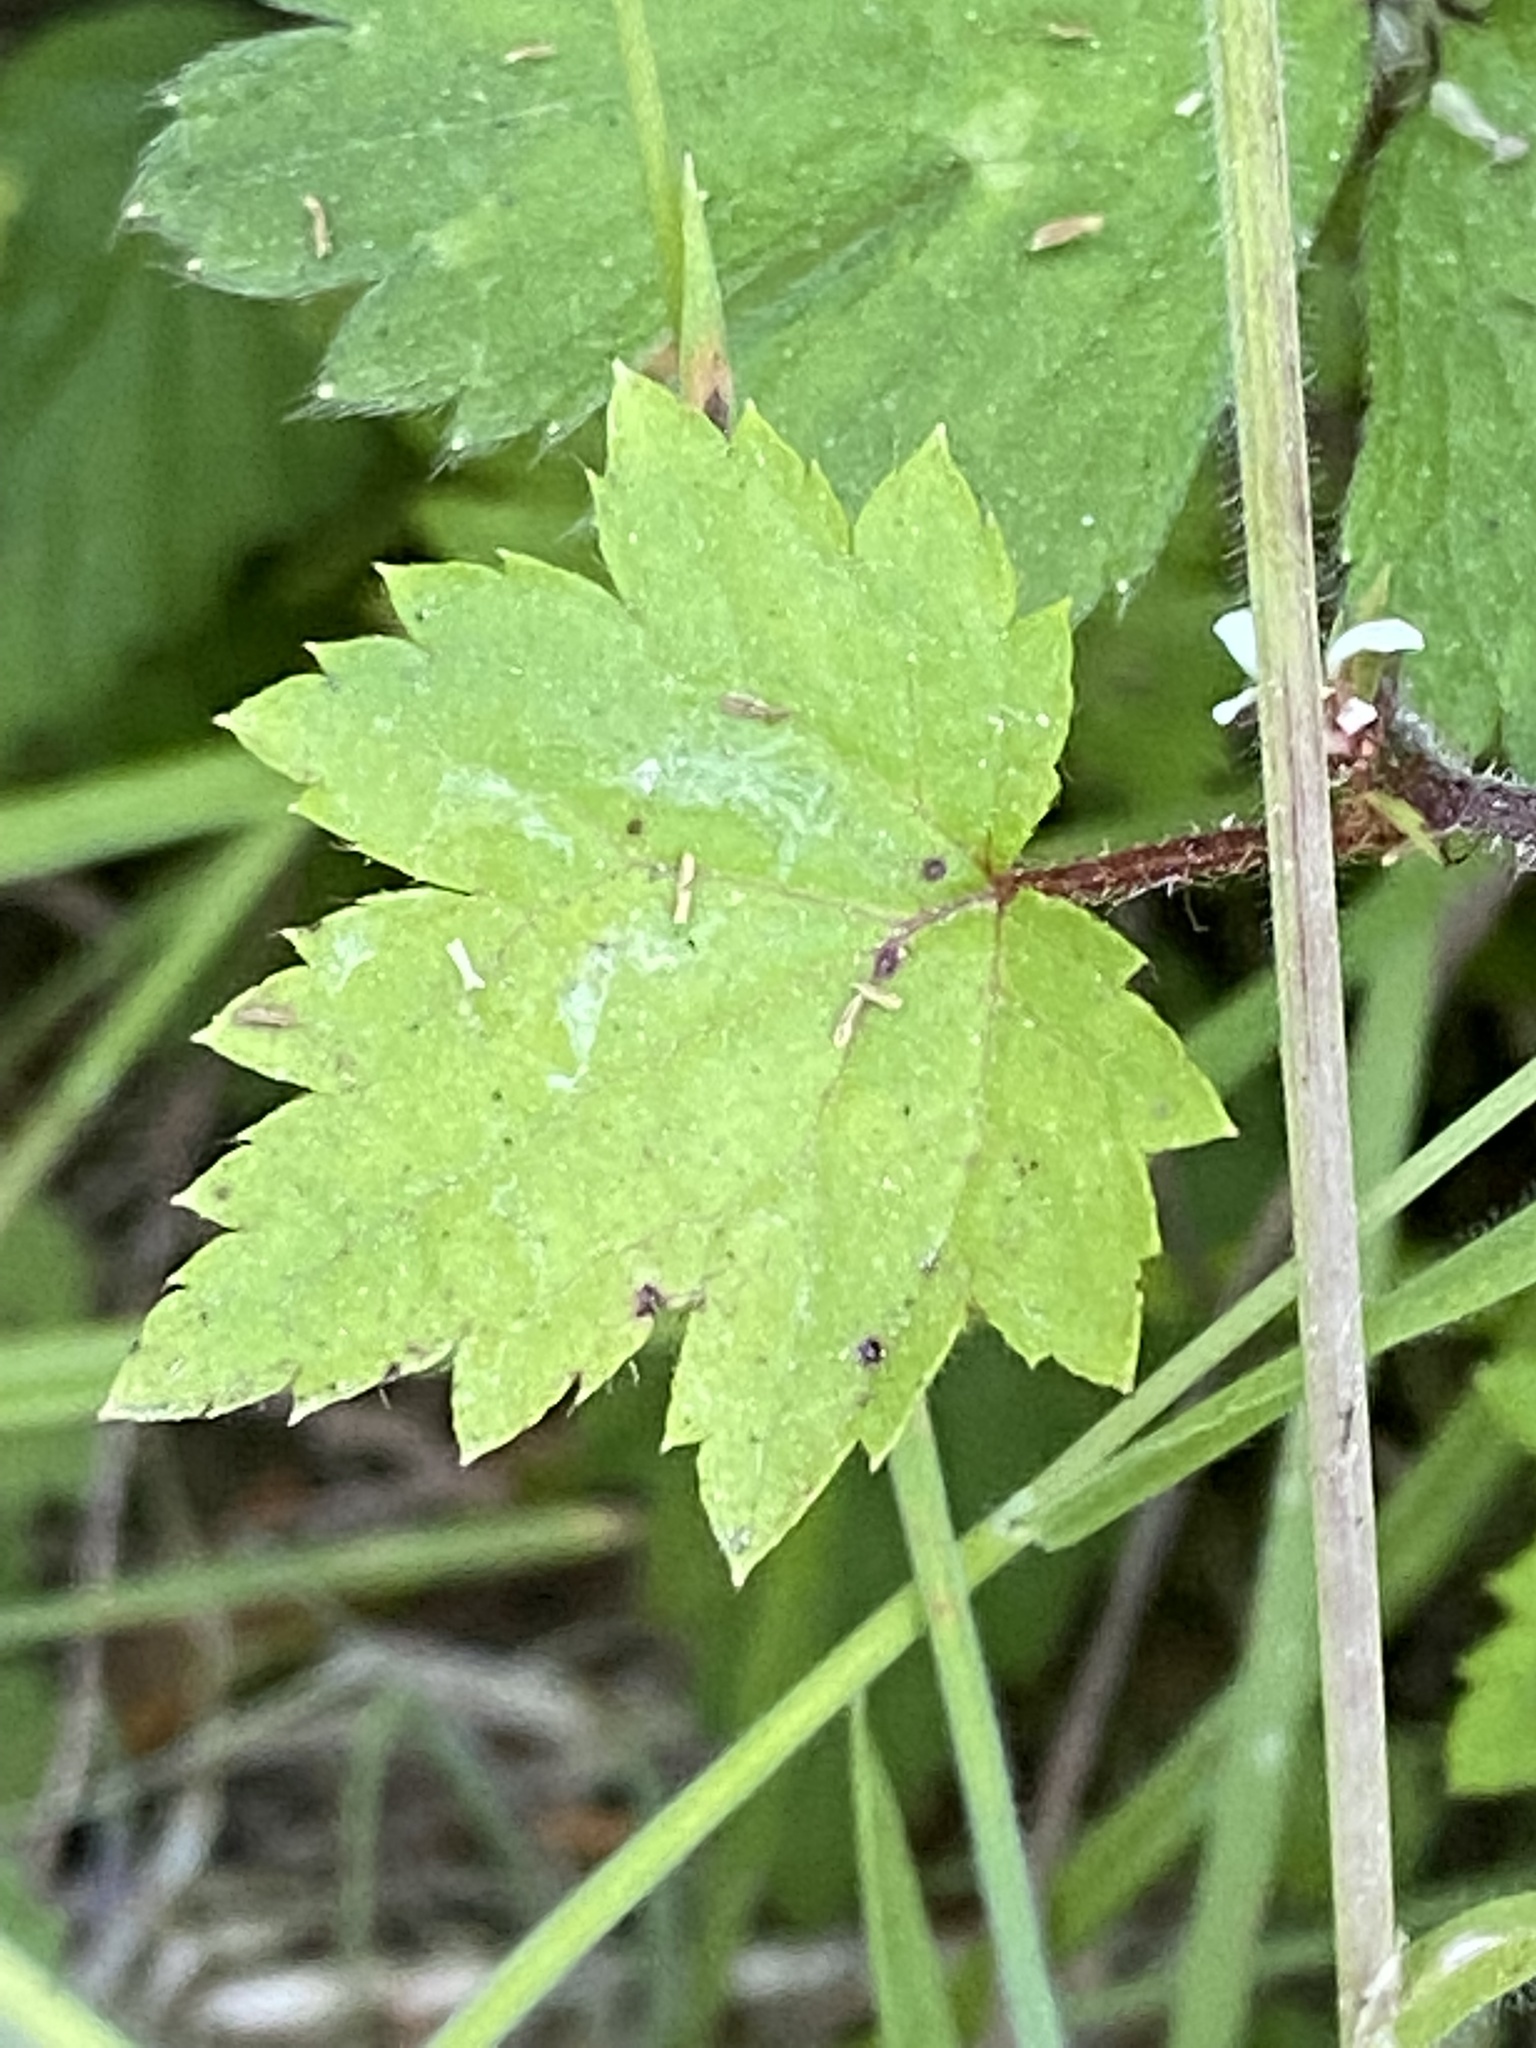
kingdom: Plantae
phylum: Tracheophyta
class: Magnoliopsida
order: Saxifragales
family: Saxifragaceae
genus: Boykinia
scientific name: Boykinia occidentalis
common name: Coast boykinia
